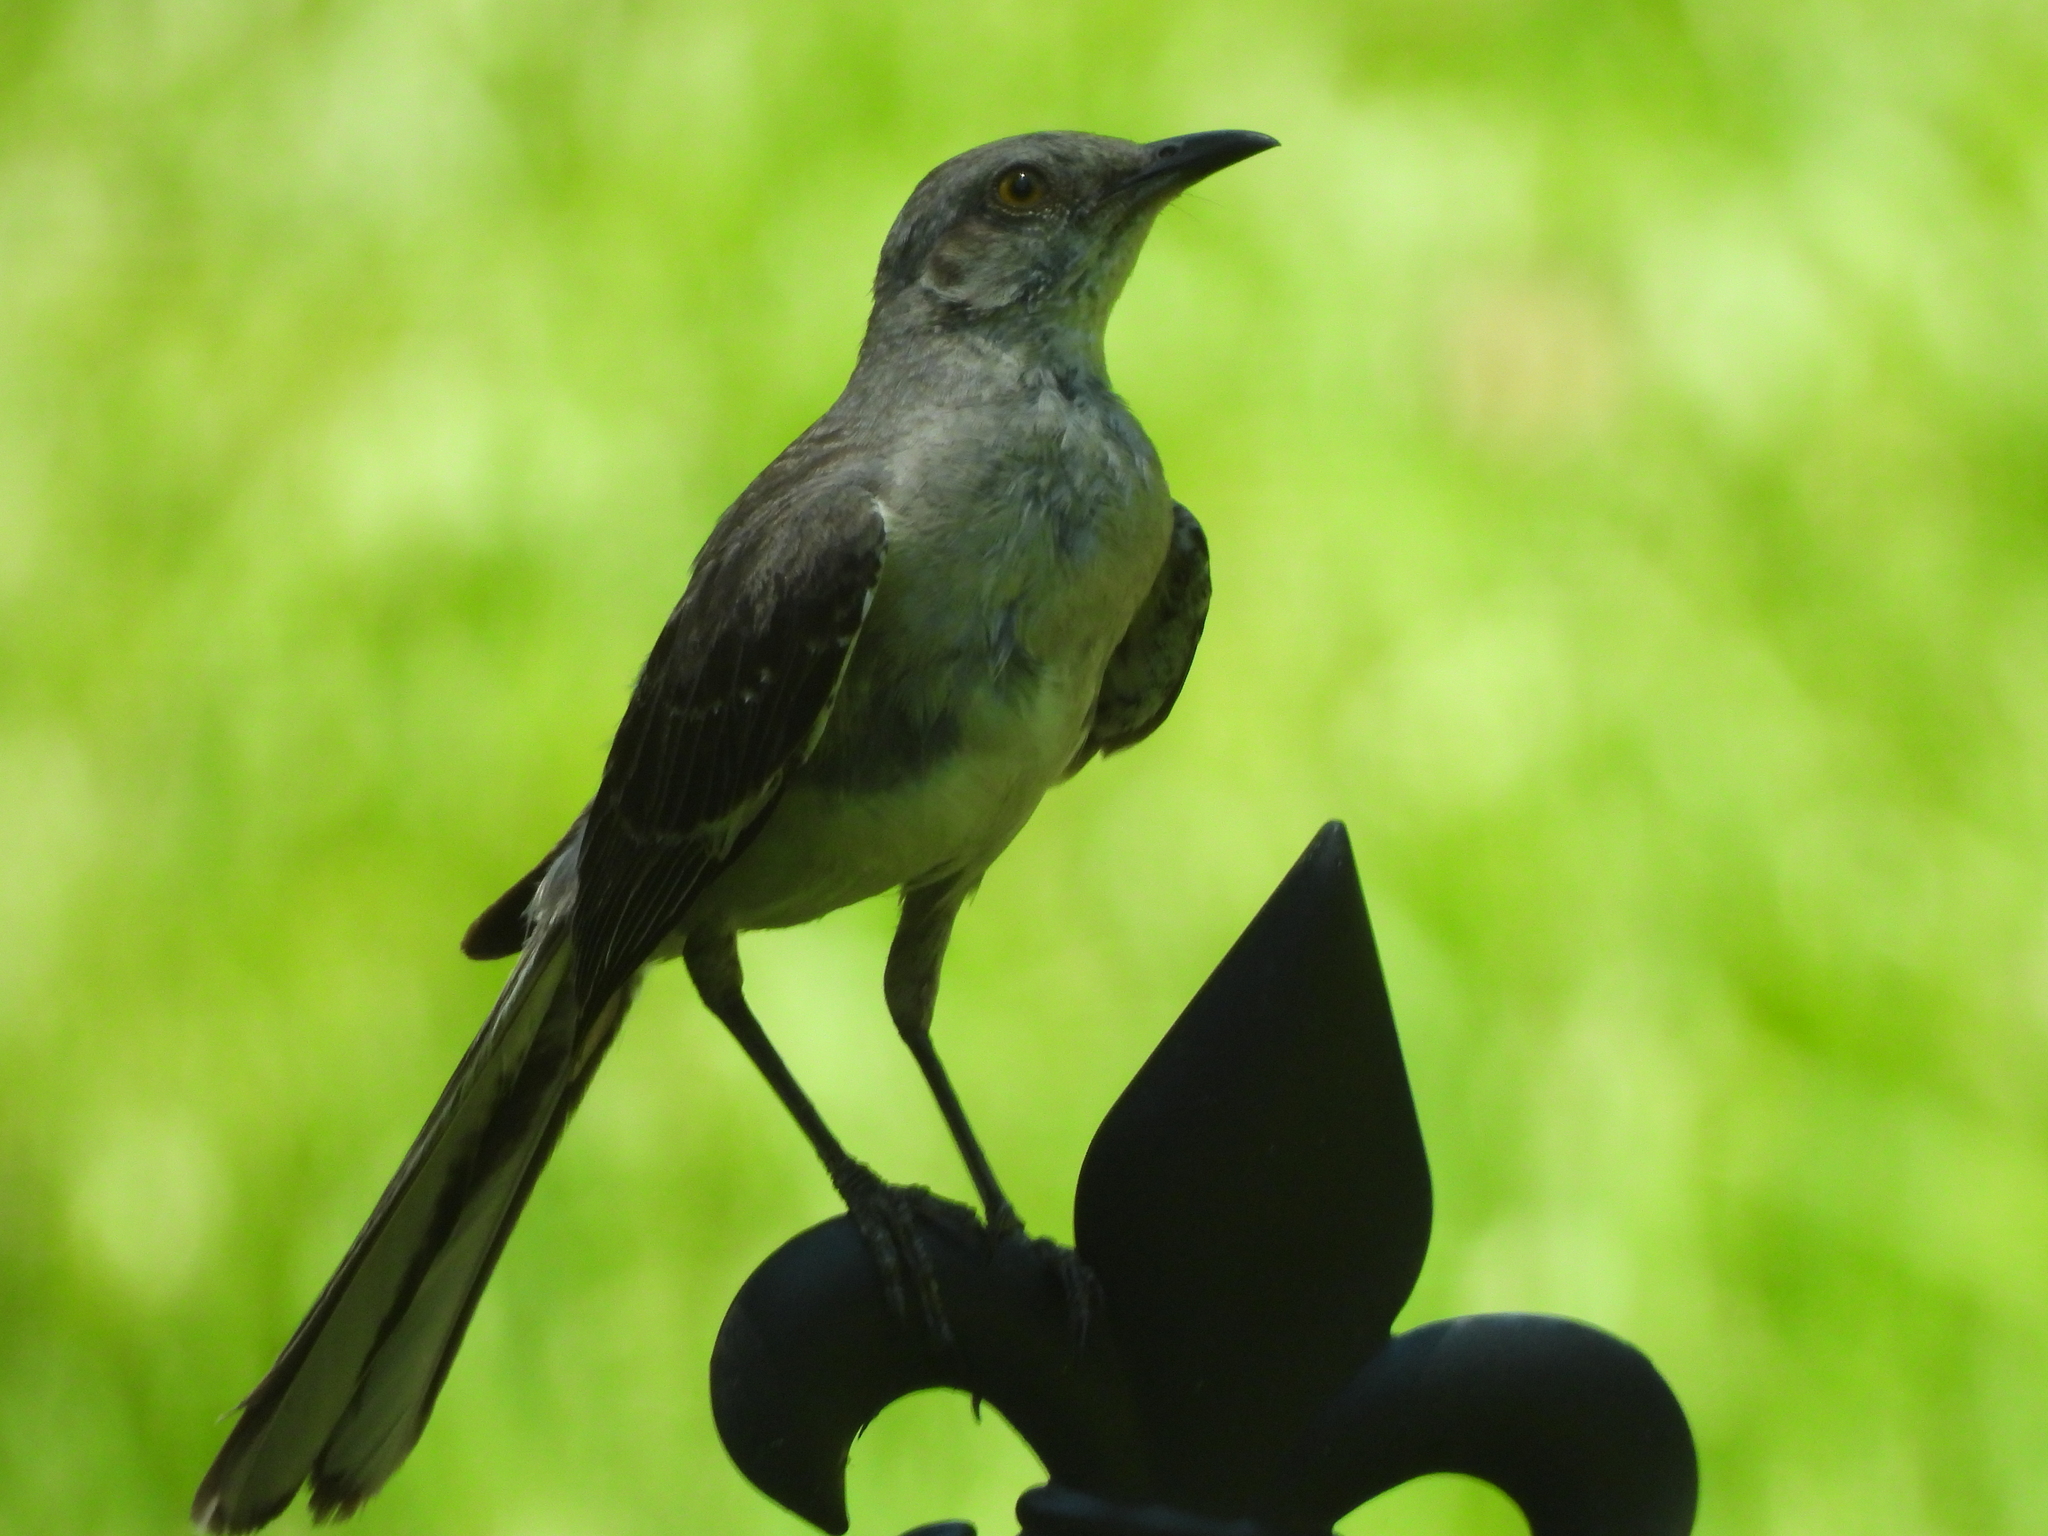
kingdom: Animalia
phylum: Chordata
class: Aves
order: Passeriformes
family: Mimidae
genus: Mimus
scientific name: Mimus polyglottos
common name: Northern mockingbird
